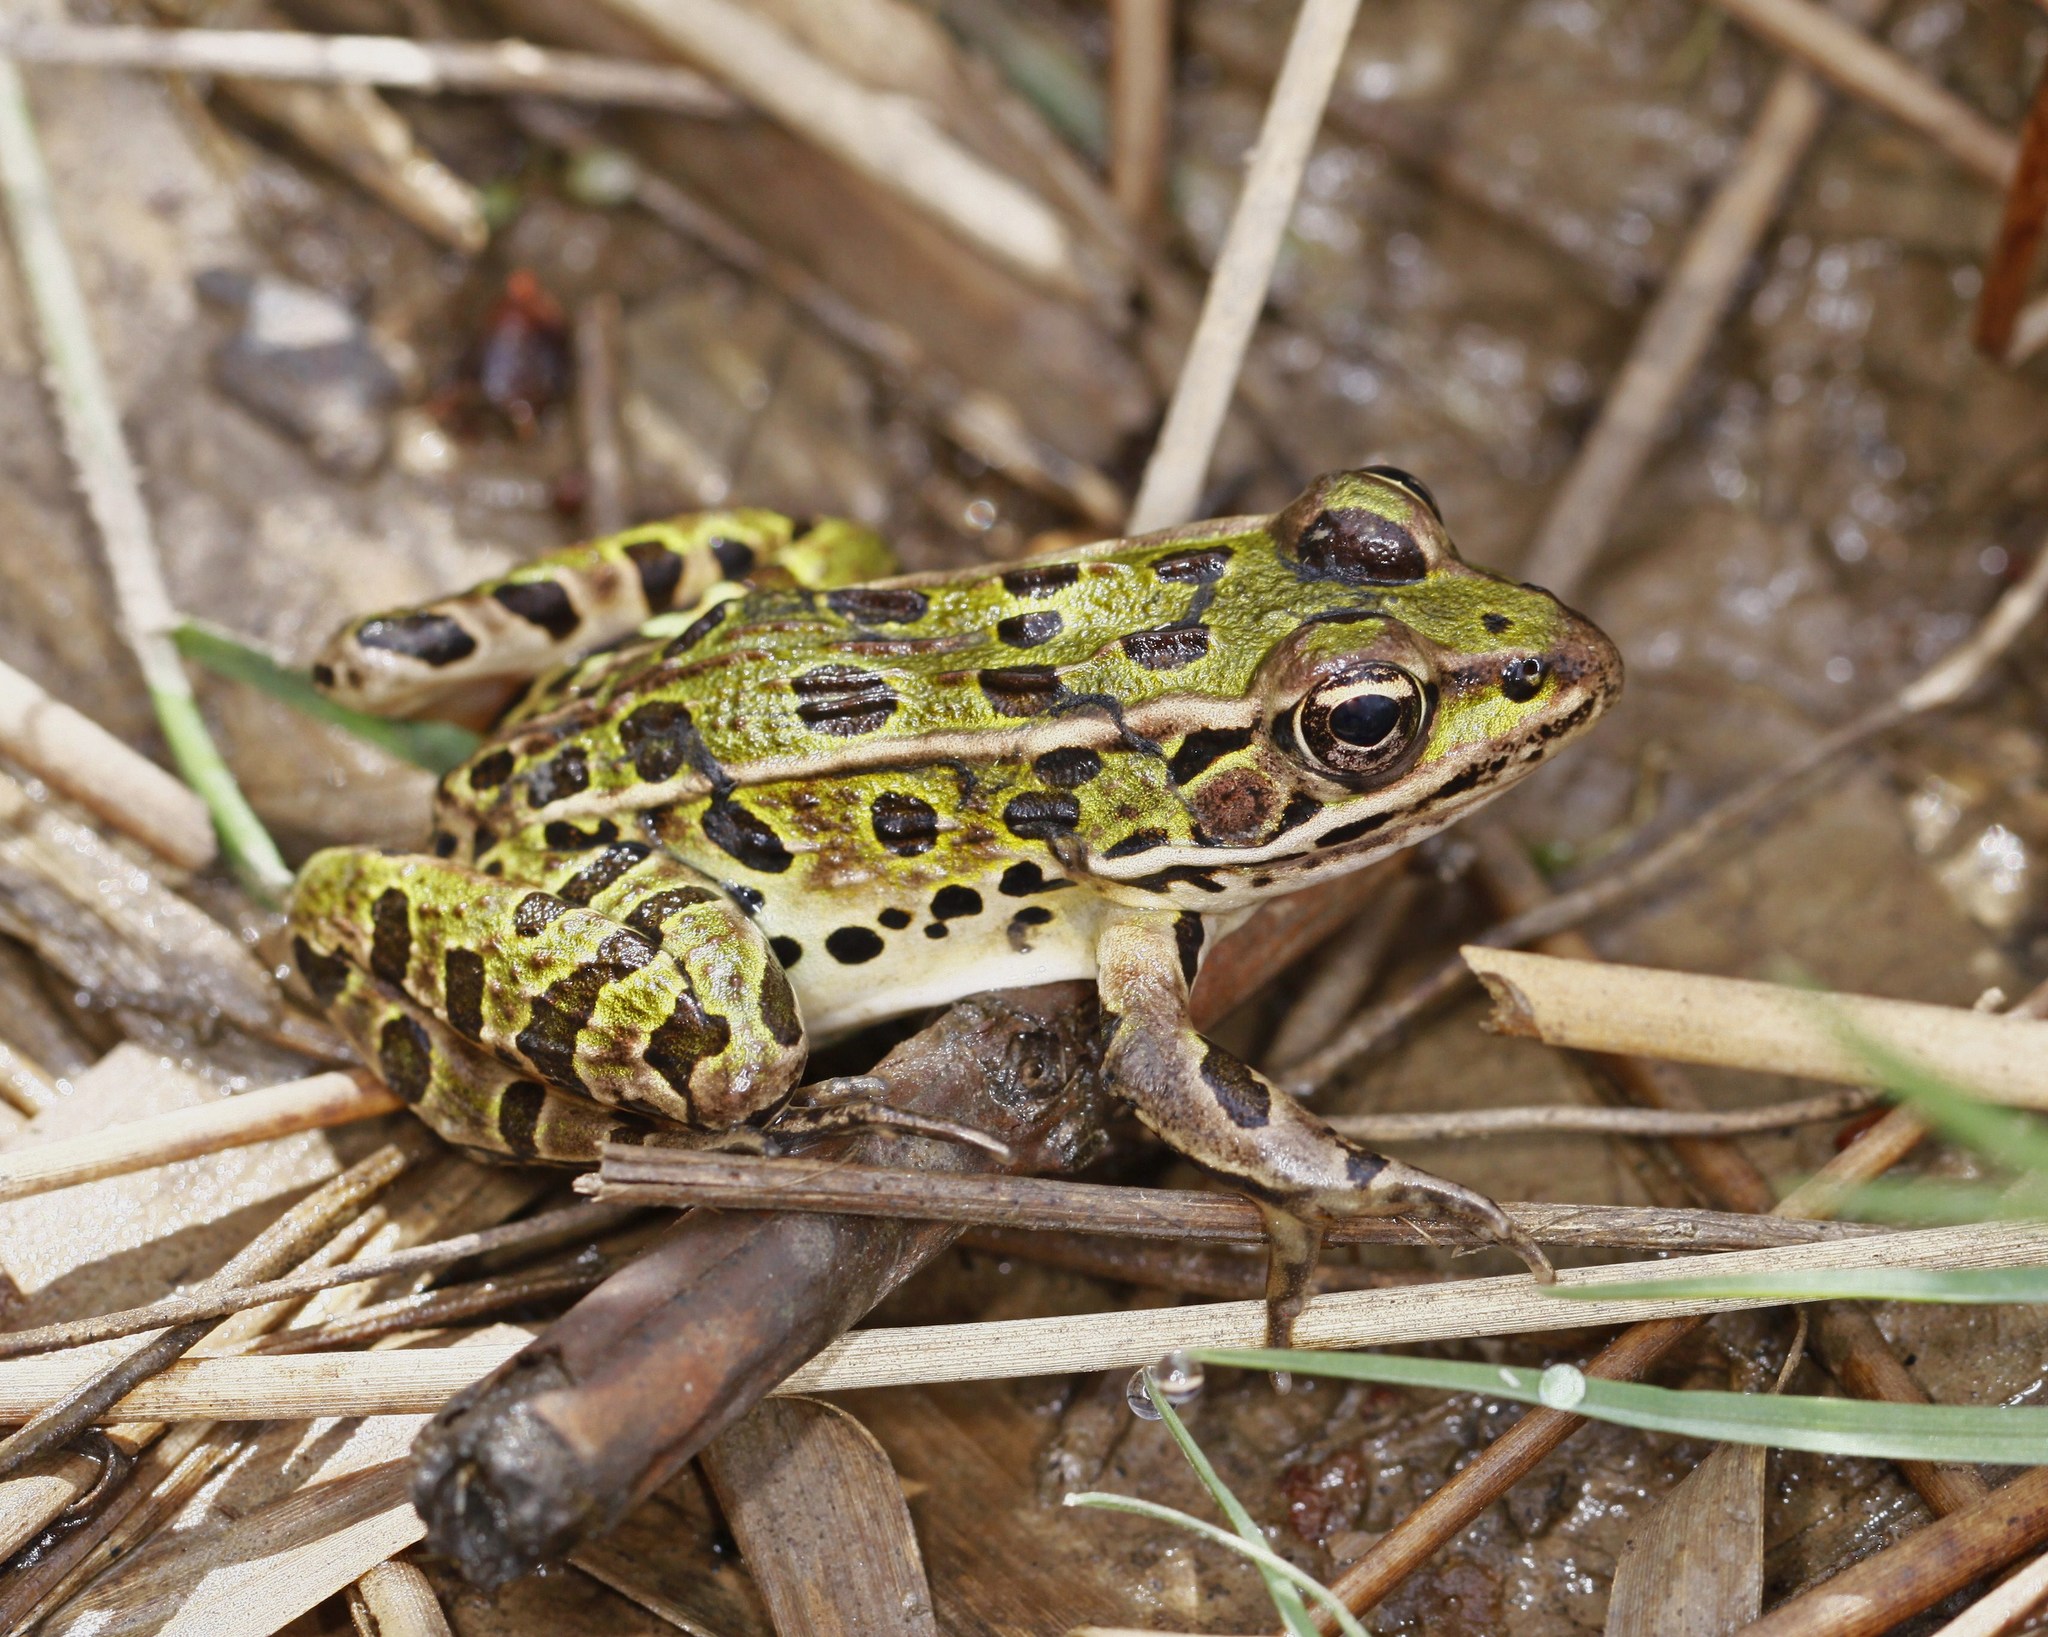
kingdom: Animalia
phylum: Chordata
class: Amphibia
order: Anura
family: Ranidae
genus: Lithobates
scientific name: Lithobates pipiens
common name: Northern leopard frog
